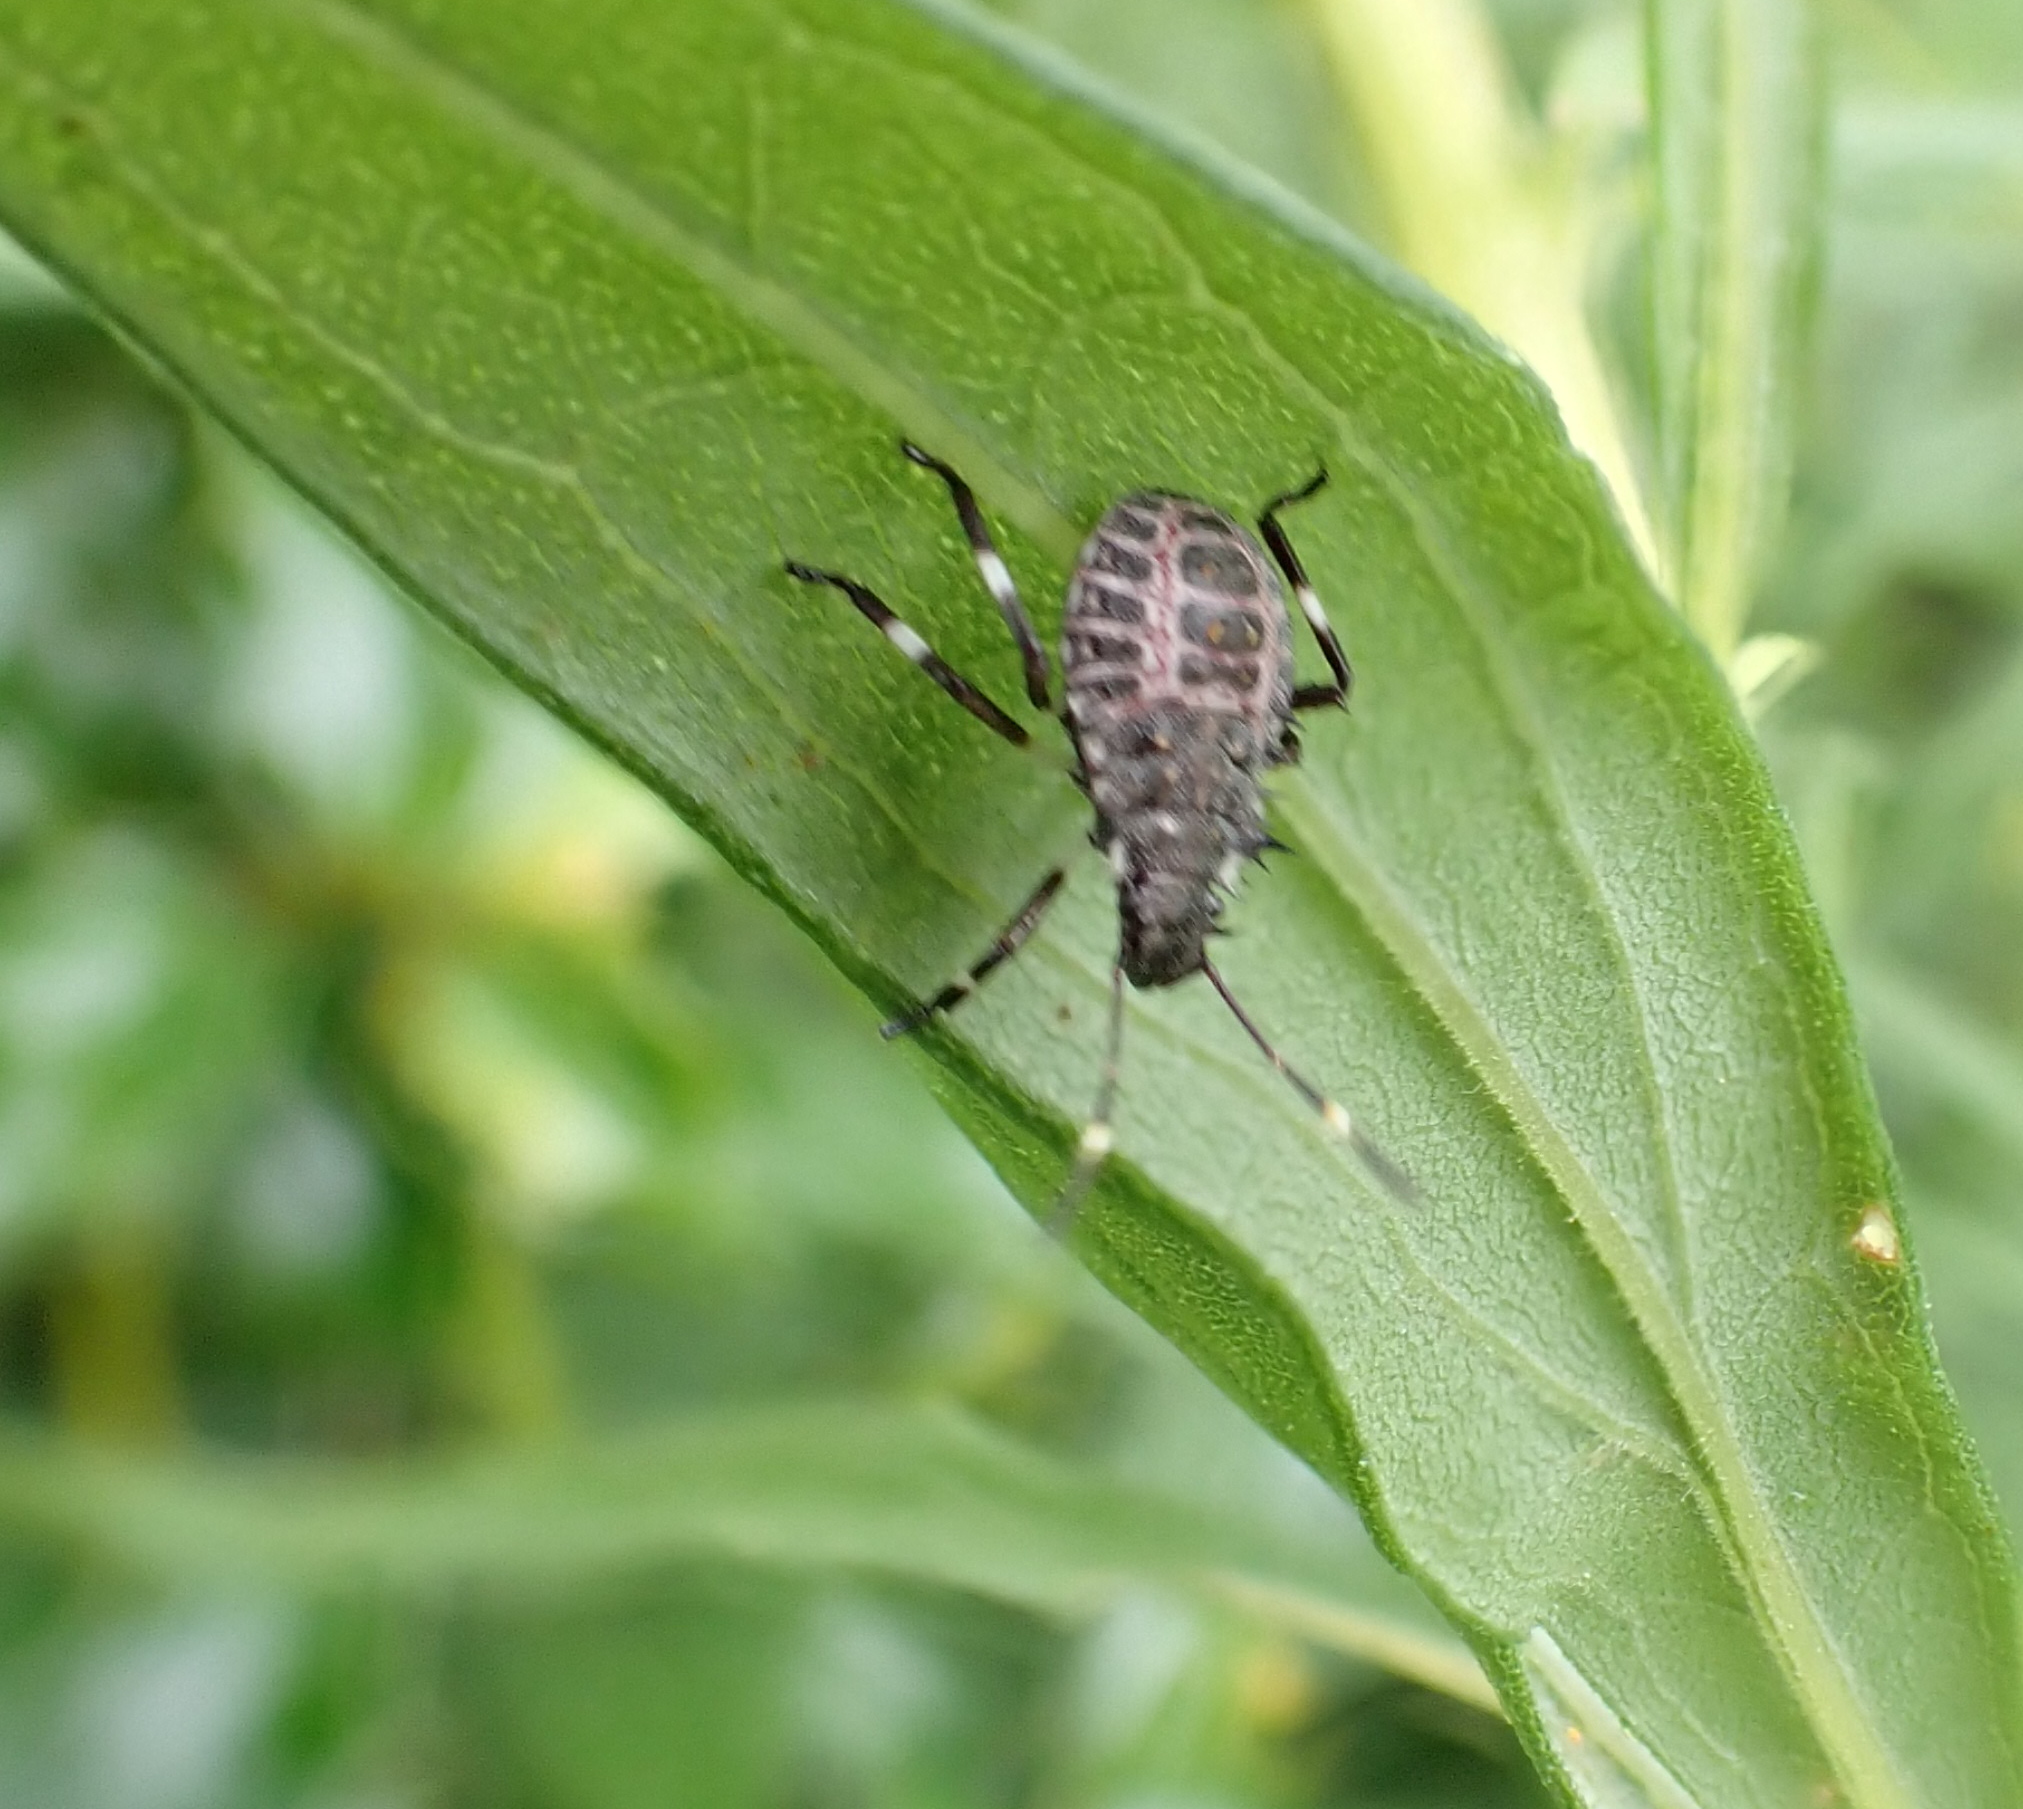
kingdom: Animalia
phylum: Arthropoda
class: Insecta
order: Hemiptera
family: Pentatomidae
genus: Halyomorpha
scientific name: Halyomorpha halys
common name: Brown marmorated stink bug
